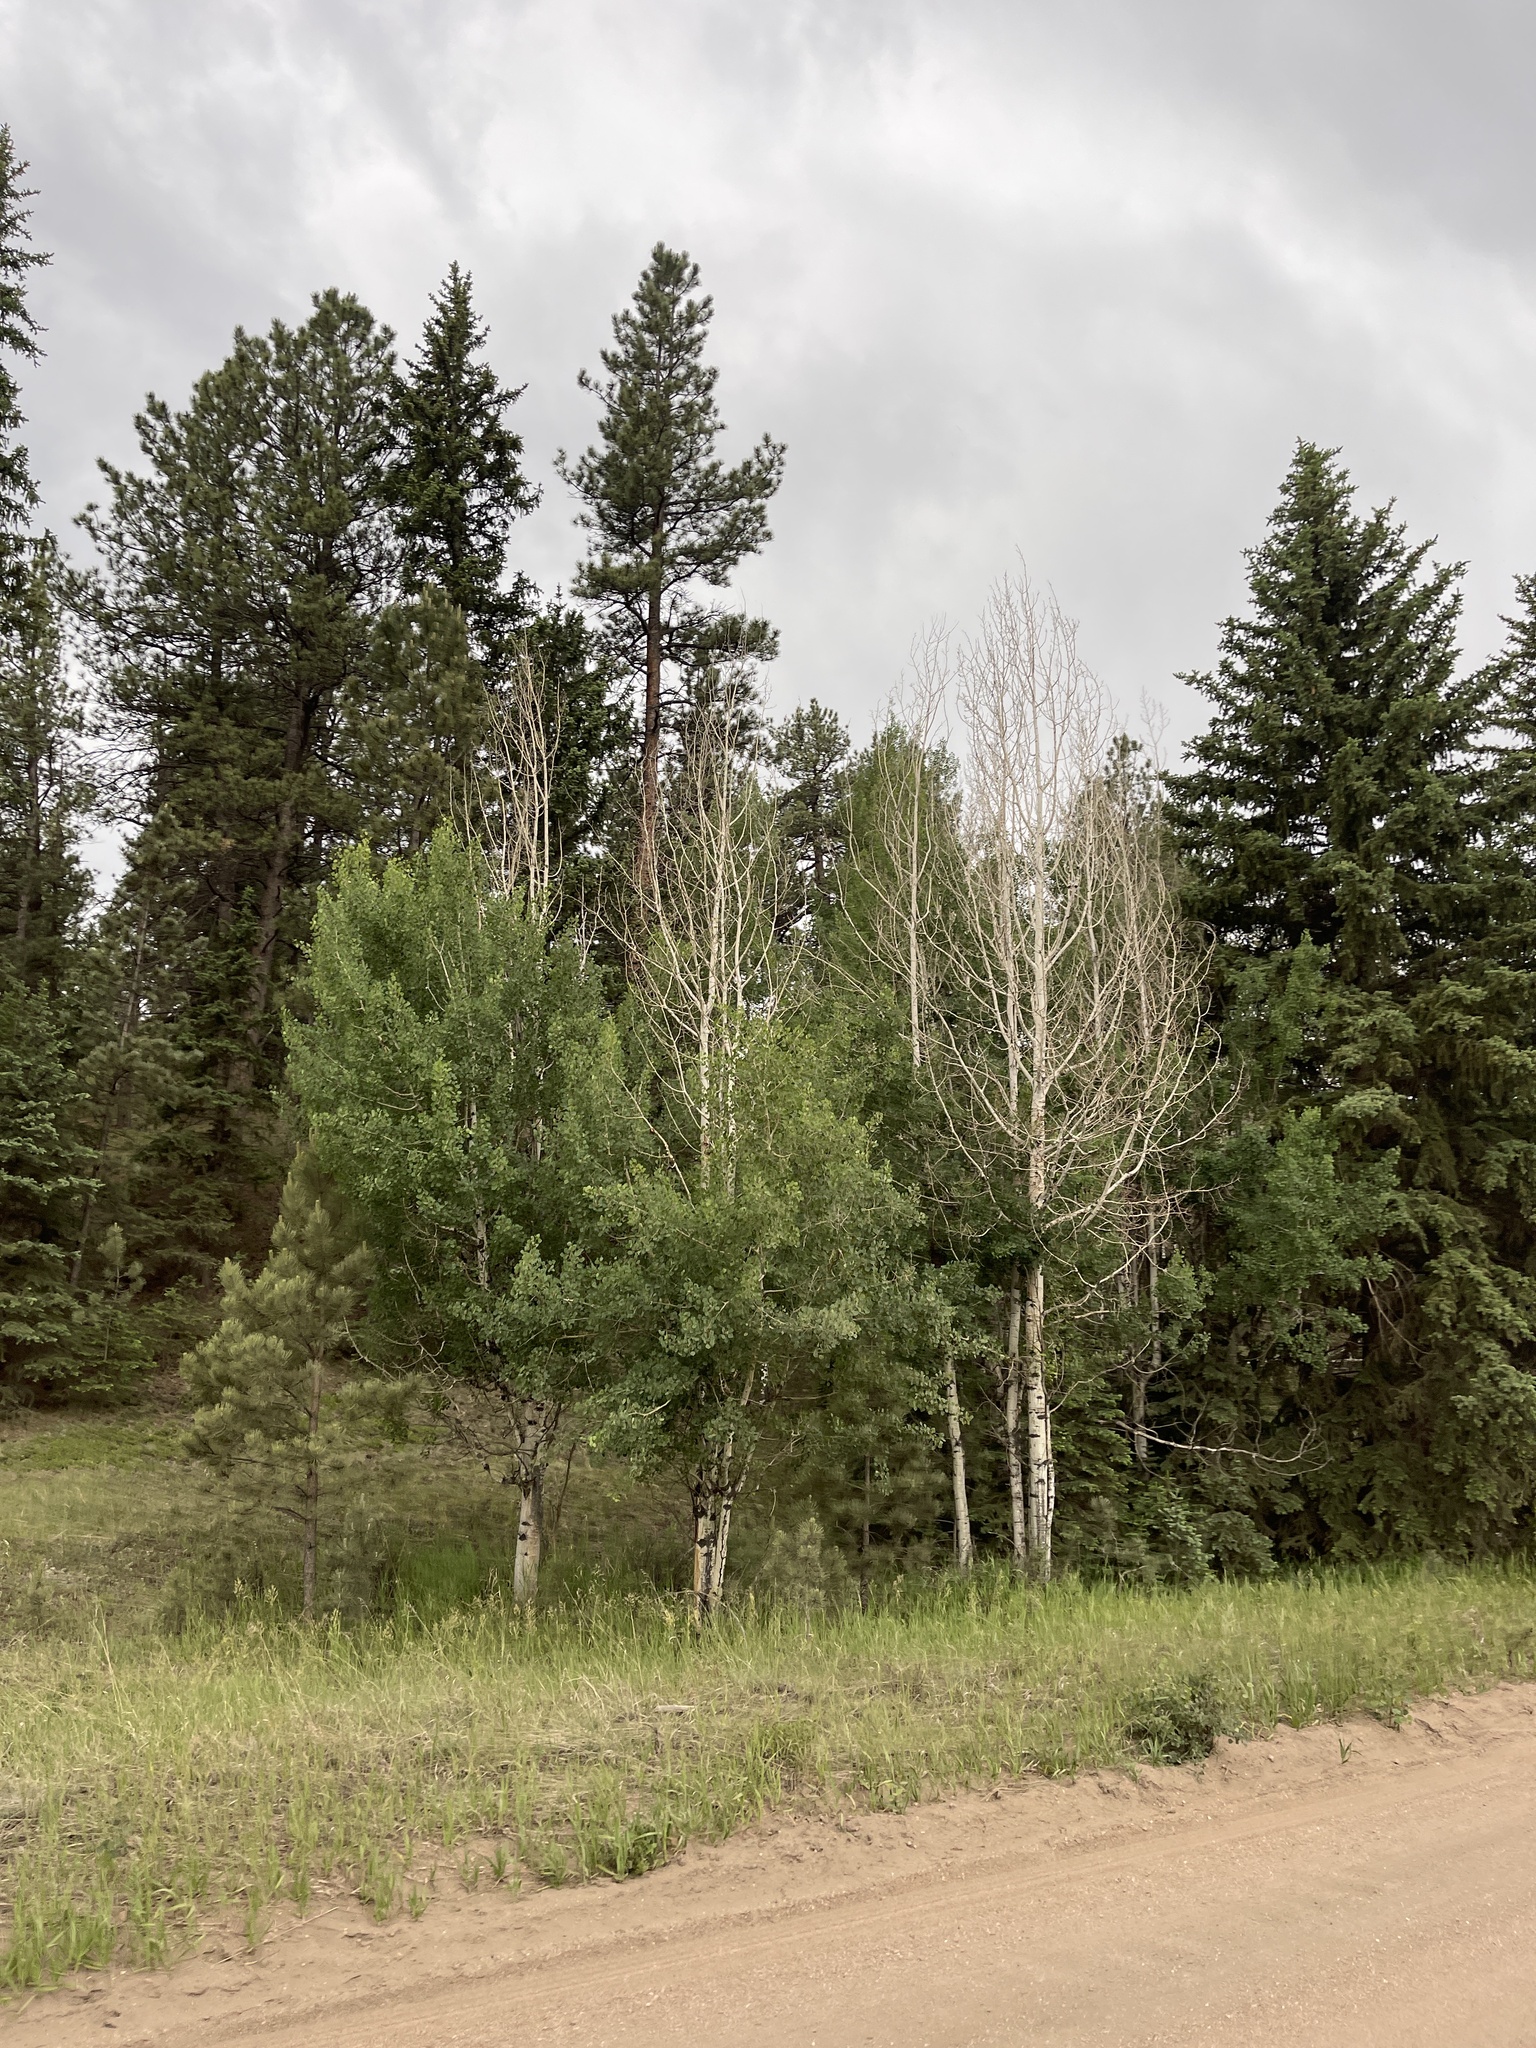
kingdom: Plantae
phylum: Tracheophyta
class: Magnoliopsida
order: Malpighiales
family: Salicaceae
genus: Populus
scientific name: Populus tremuloides
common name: Quaking aspen
